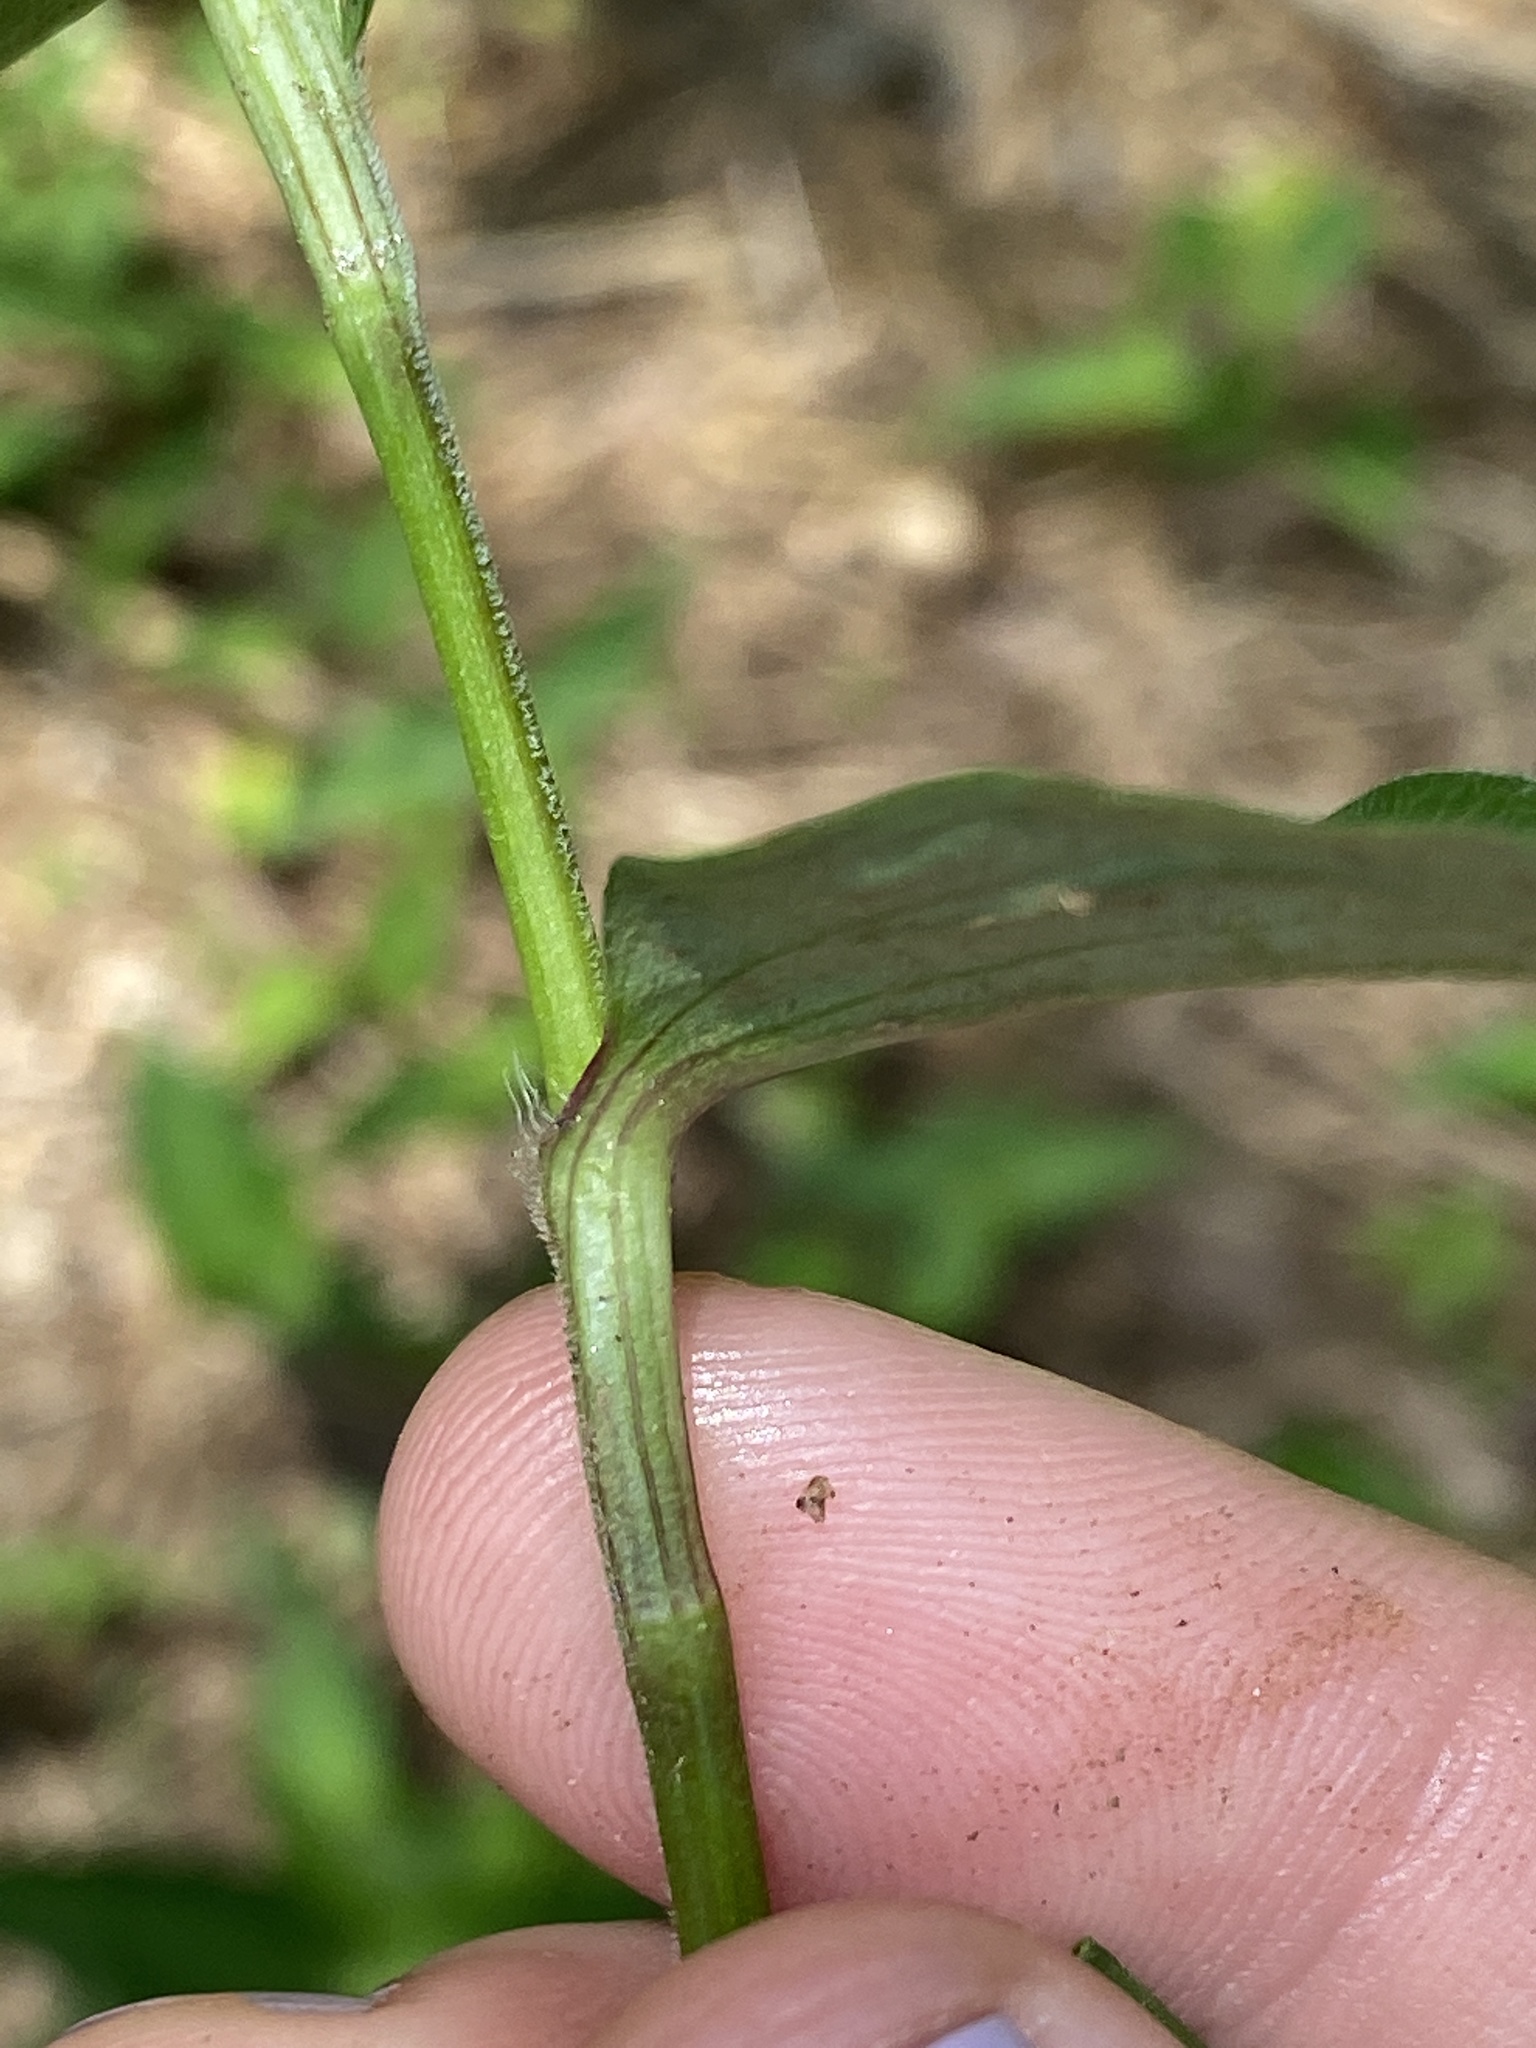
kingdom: Plantae
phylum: Tracheophyta
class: Liliopsida
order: Commelinales
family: Commelinaceae
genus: Commelina
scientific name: Commelina communis
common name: Asiatic dayflower
